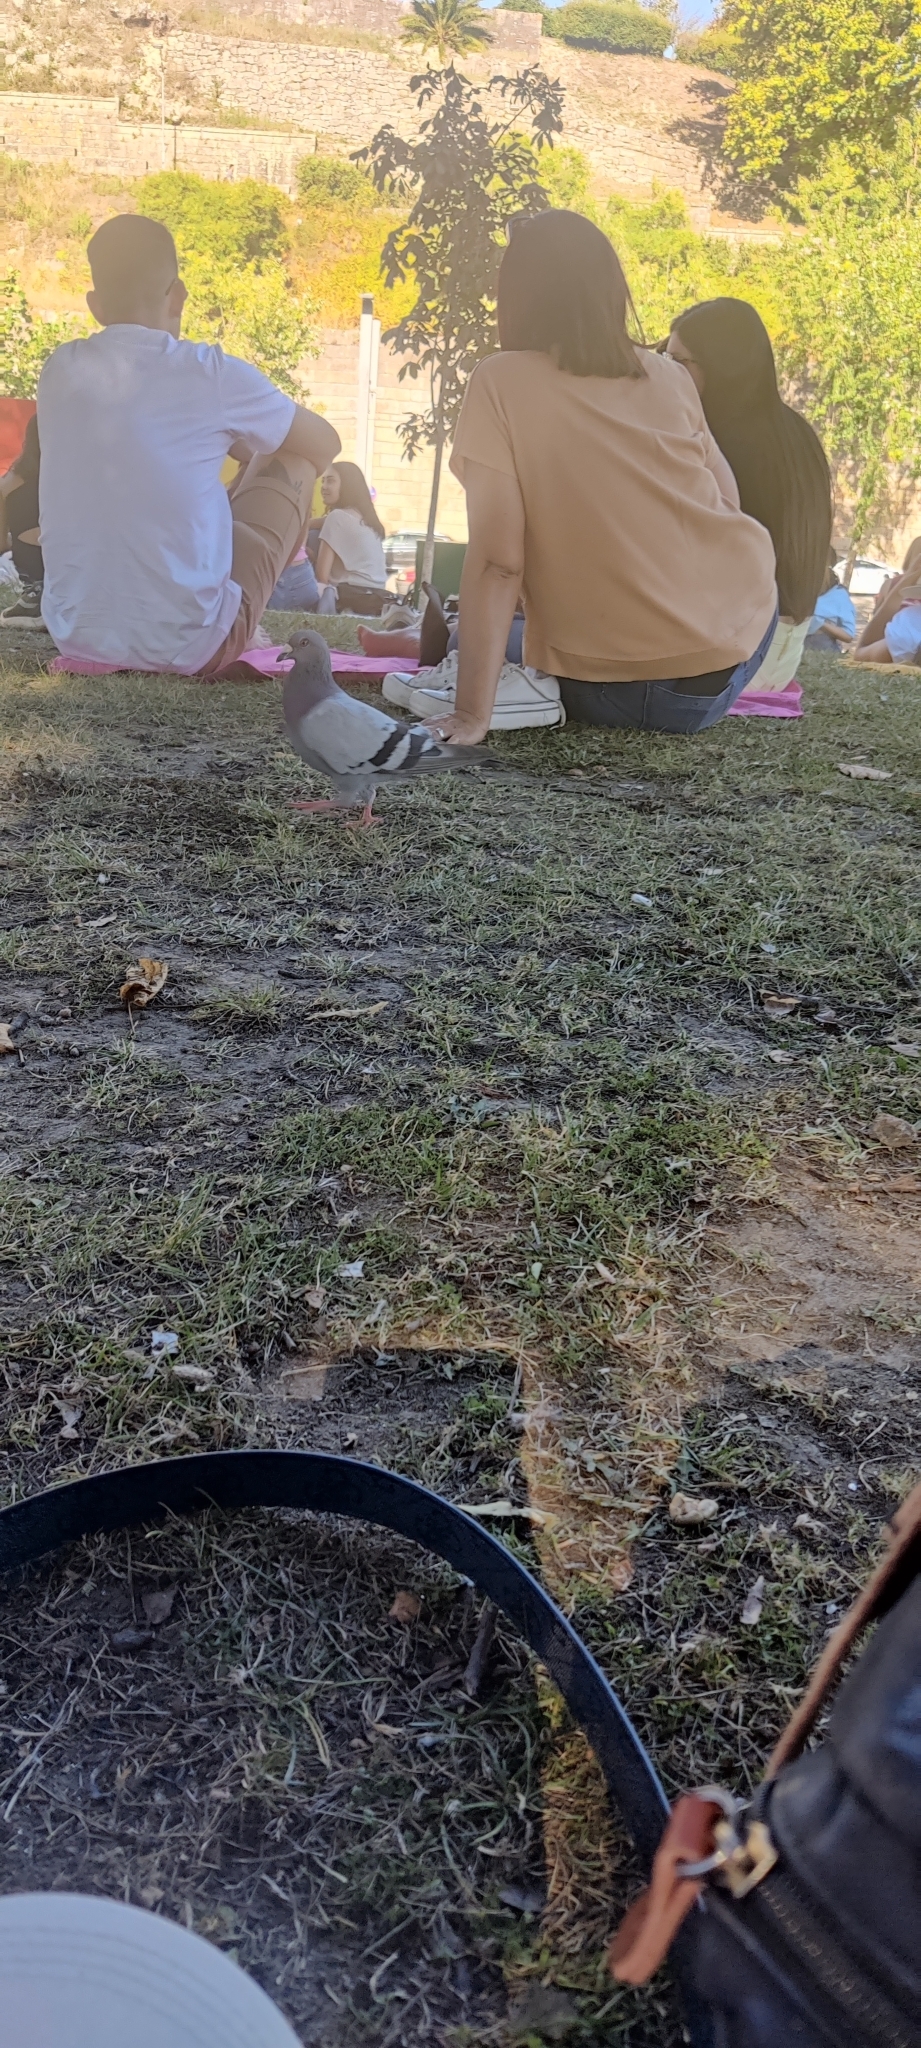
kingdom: Animalia
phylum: Chordata
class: Aves
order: Columbiformes
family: Columbidae
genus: Columba
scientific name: Columba livia
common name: Rock pigeon
